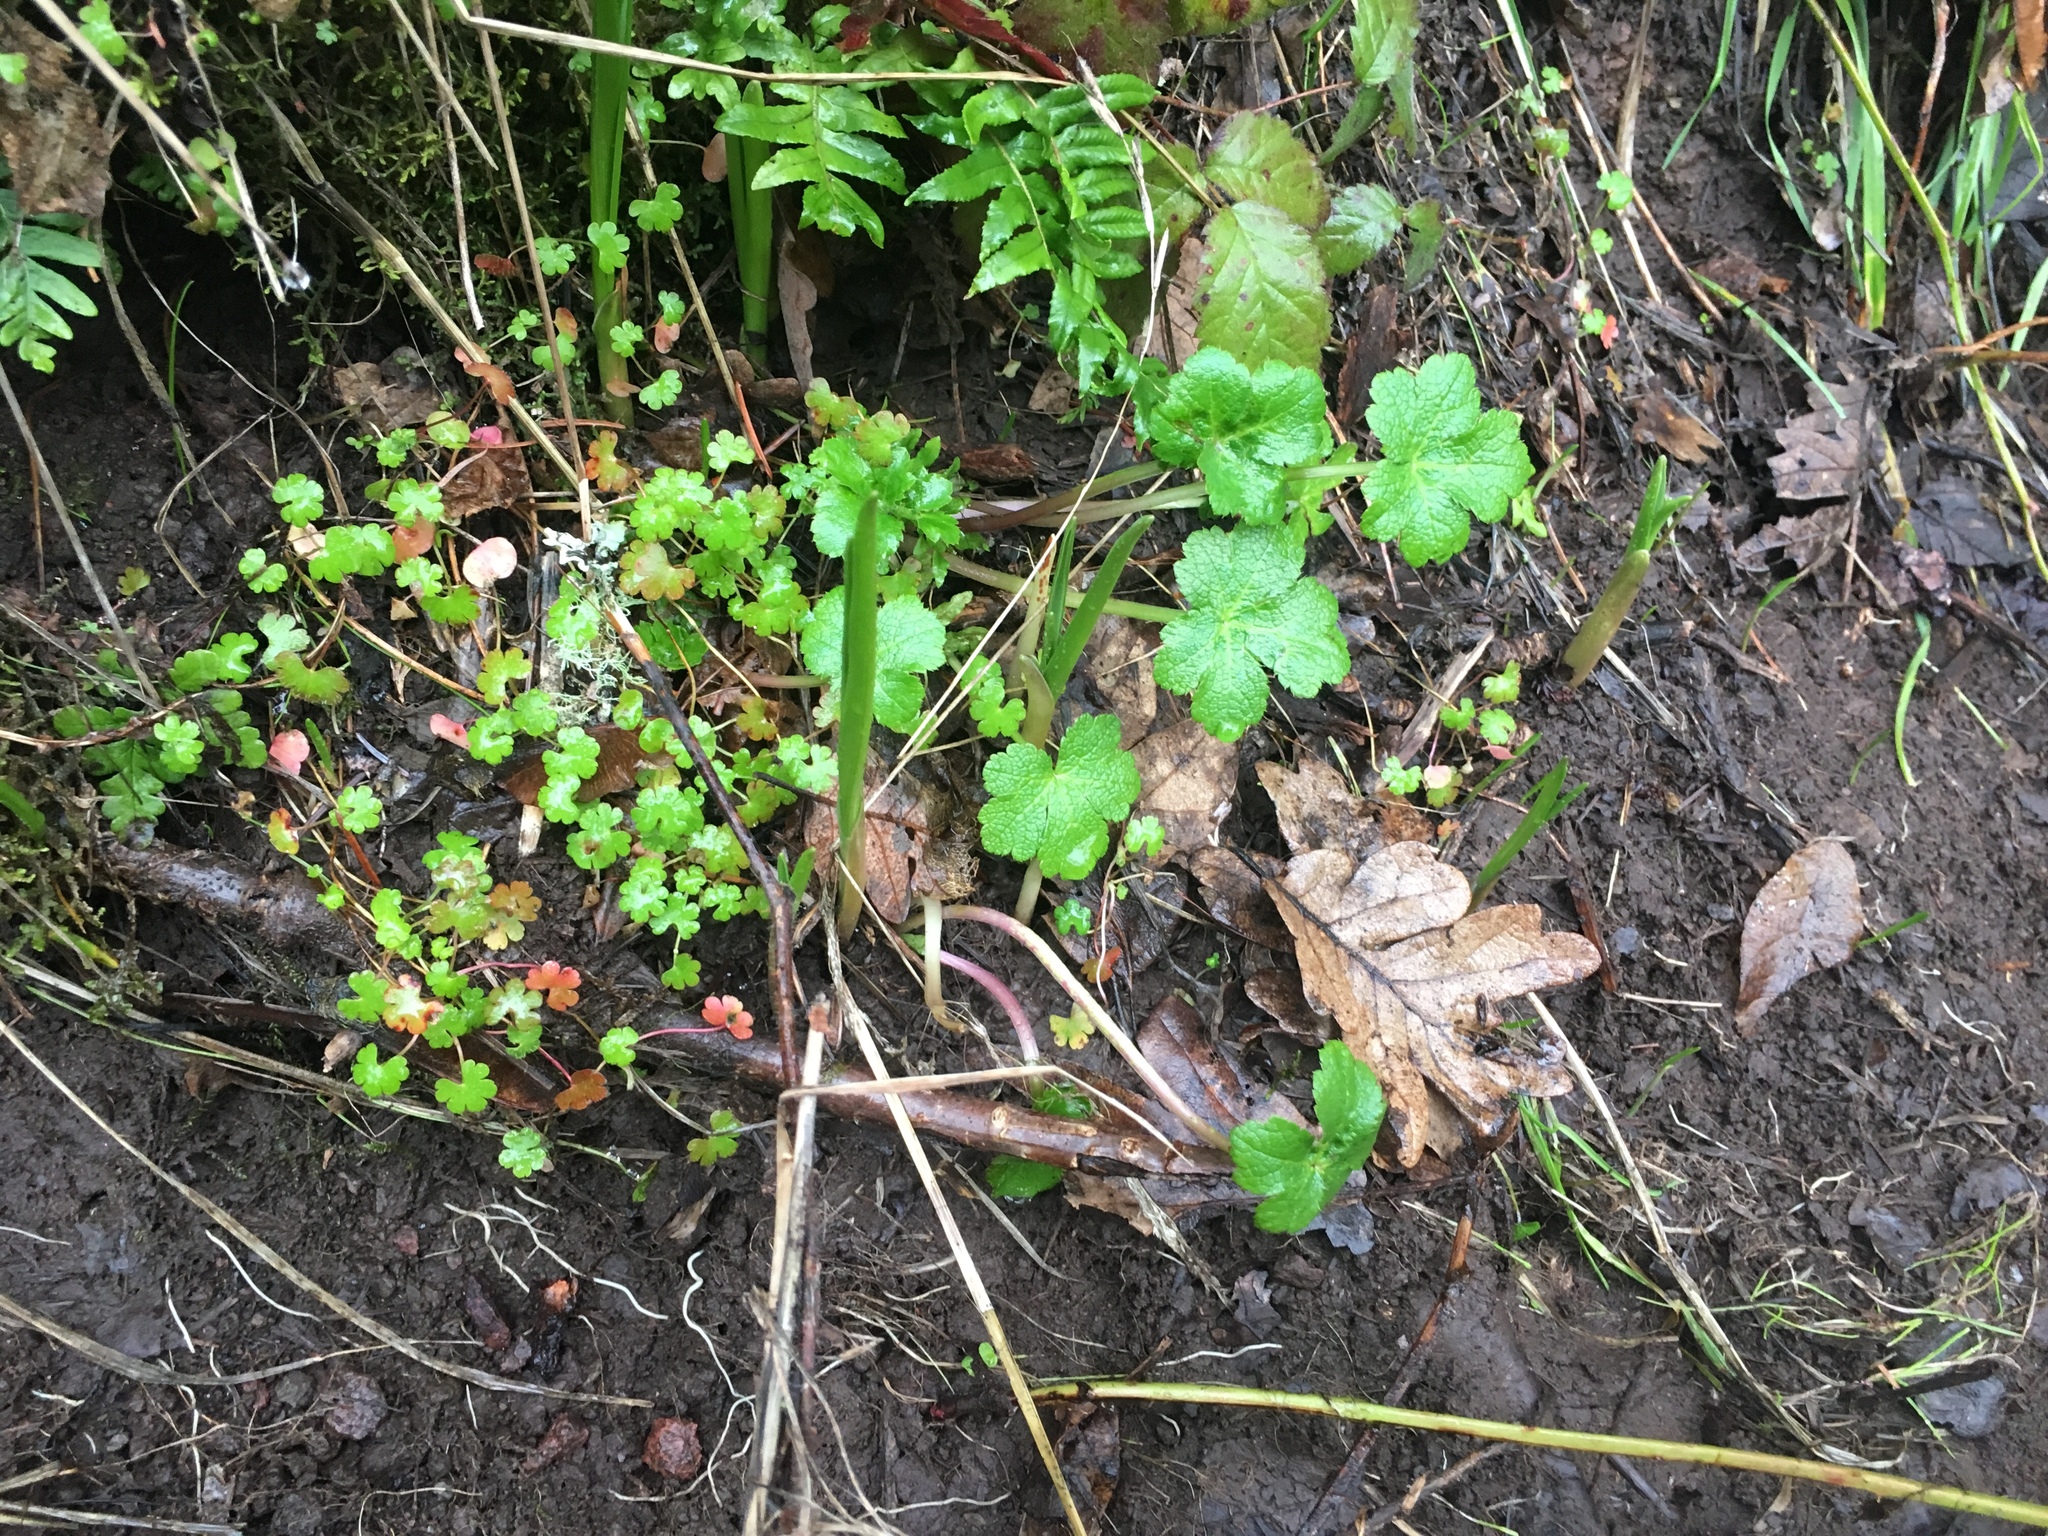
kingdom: Plantae
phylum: Tracheophyta
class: Magnoliopsida
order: Geraniales
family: Geraniaceae
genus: Geranium
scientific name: Geranium lucidum
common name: Shining crane's-bill
